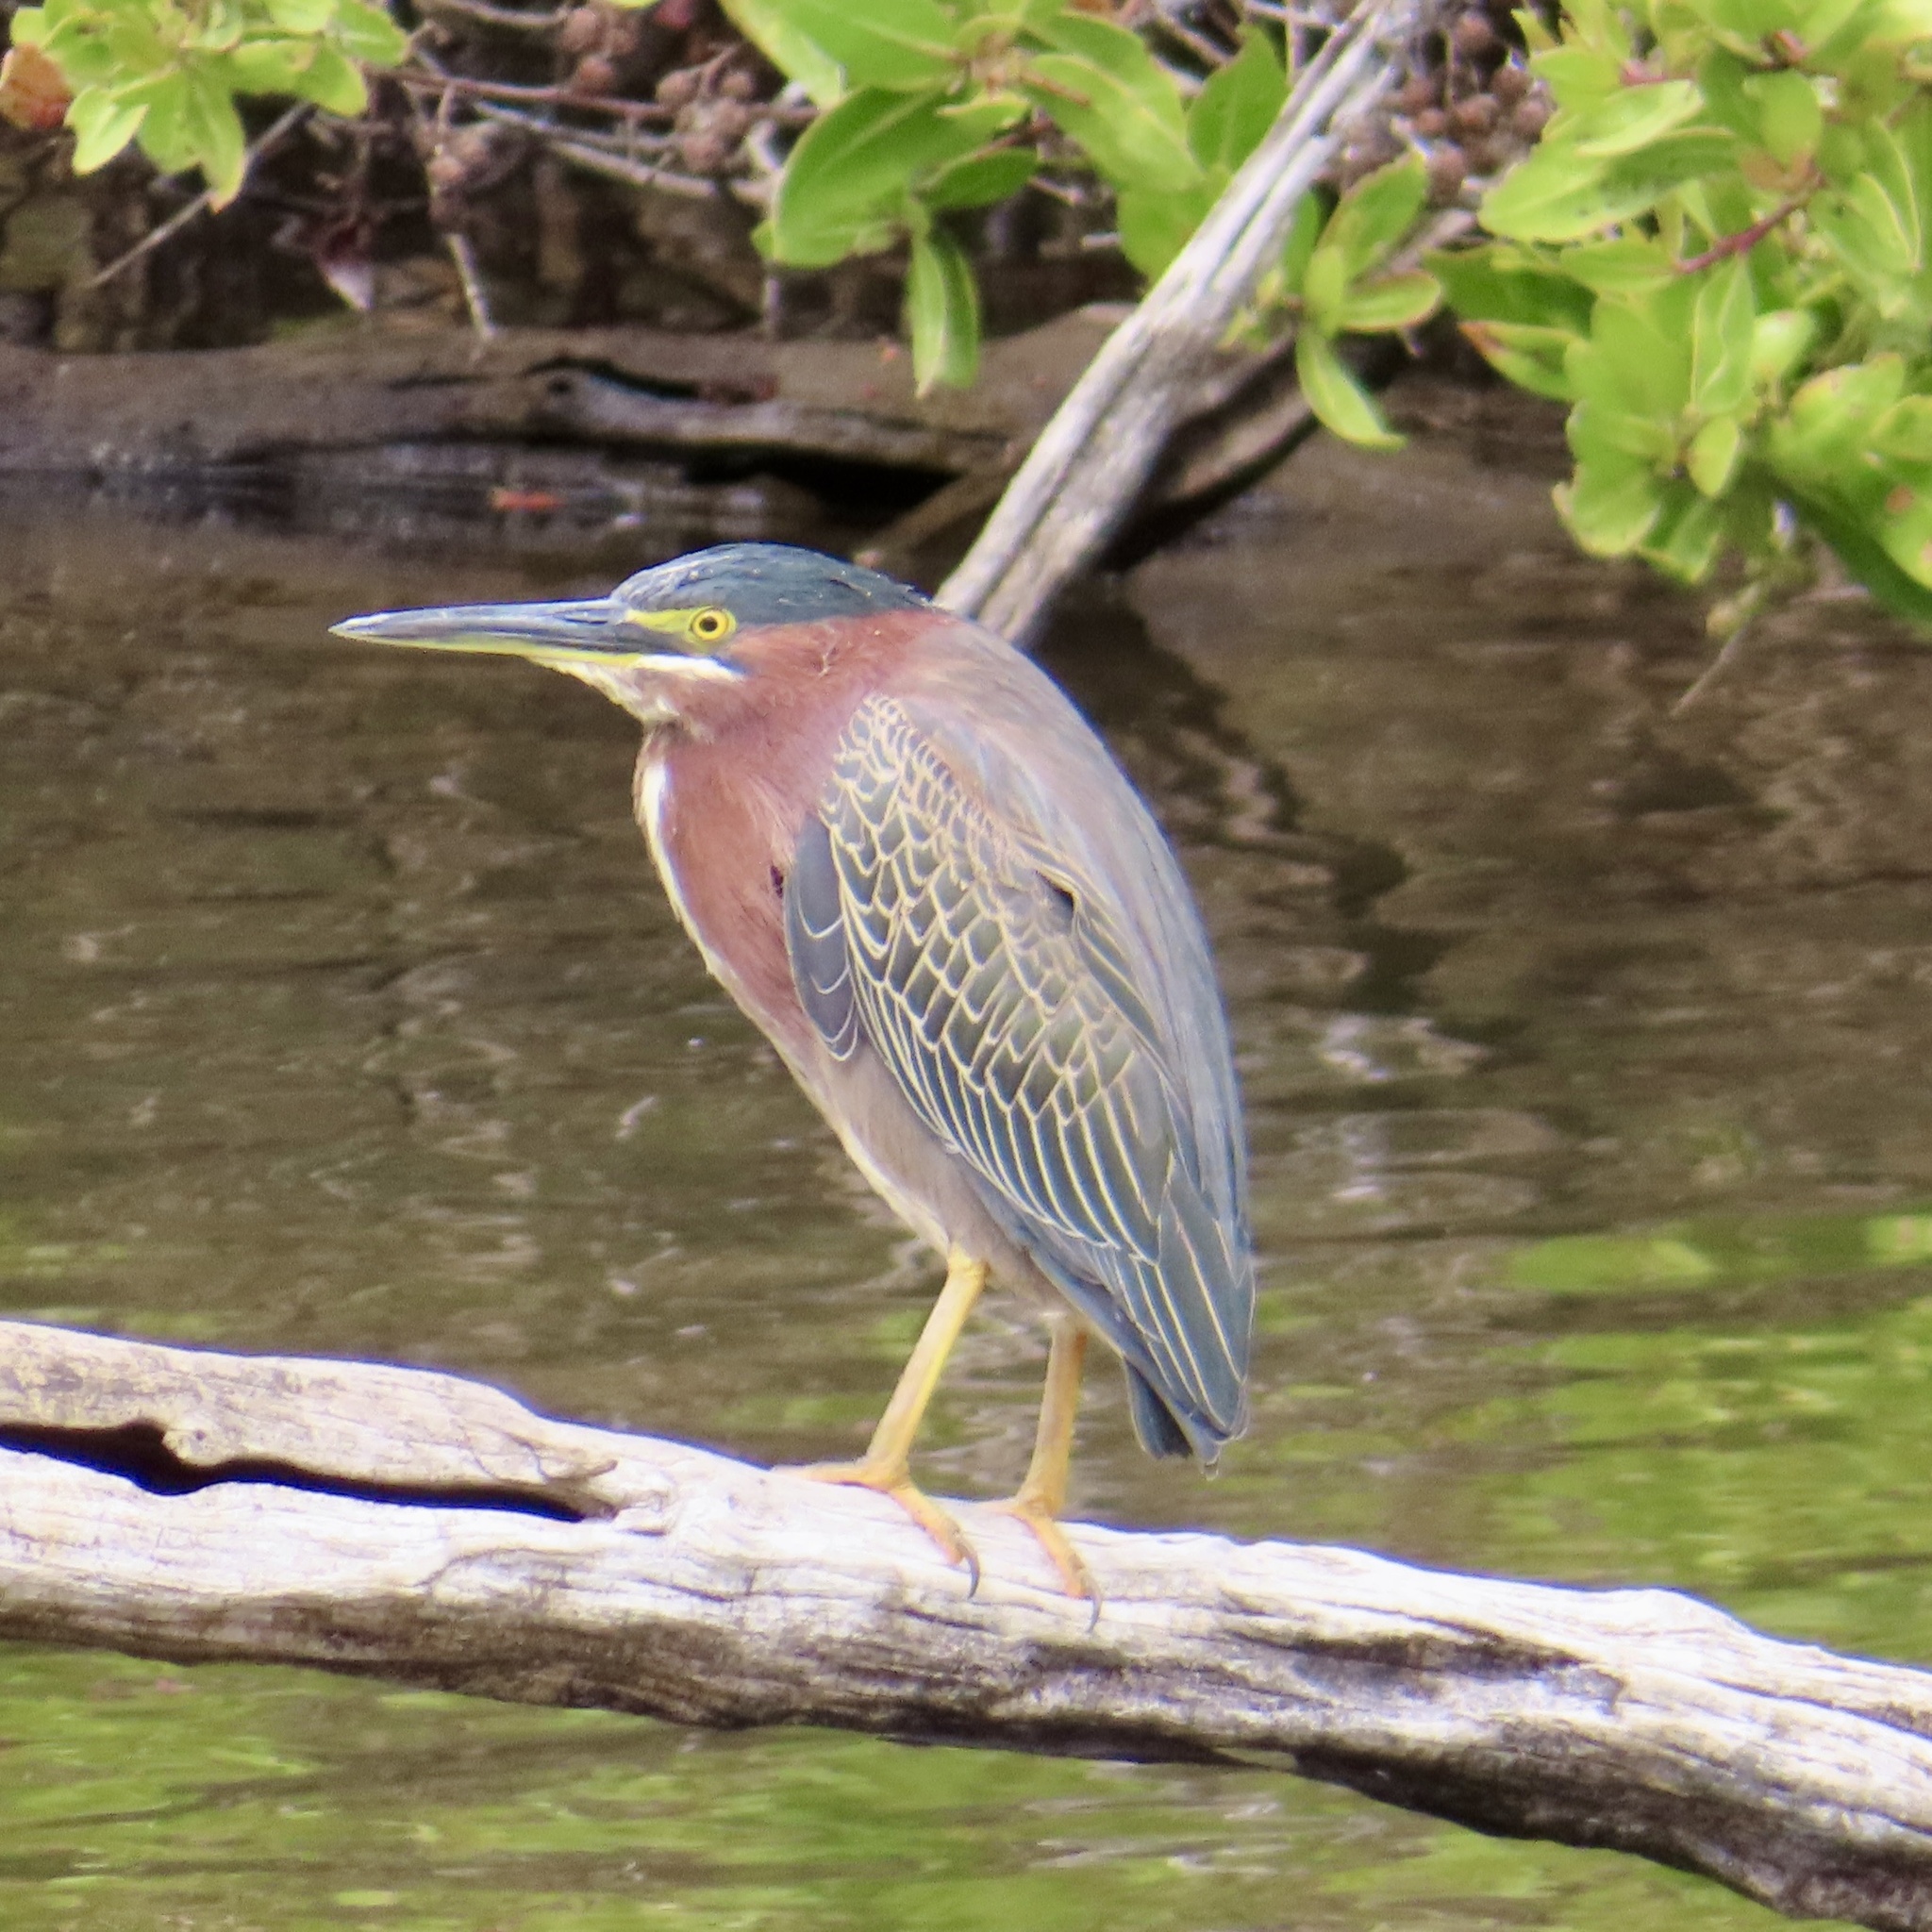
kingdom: Animalia
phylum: Chordata
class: Aves
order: Pelecaniformes
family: Ardeidae
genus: Butorides
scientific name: Butorides virescens
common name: Green heron
